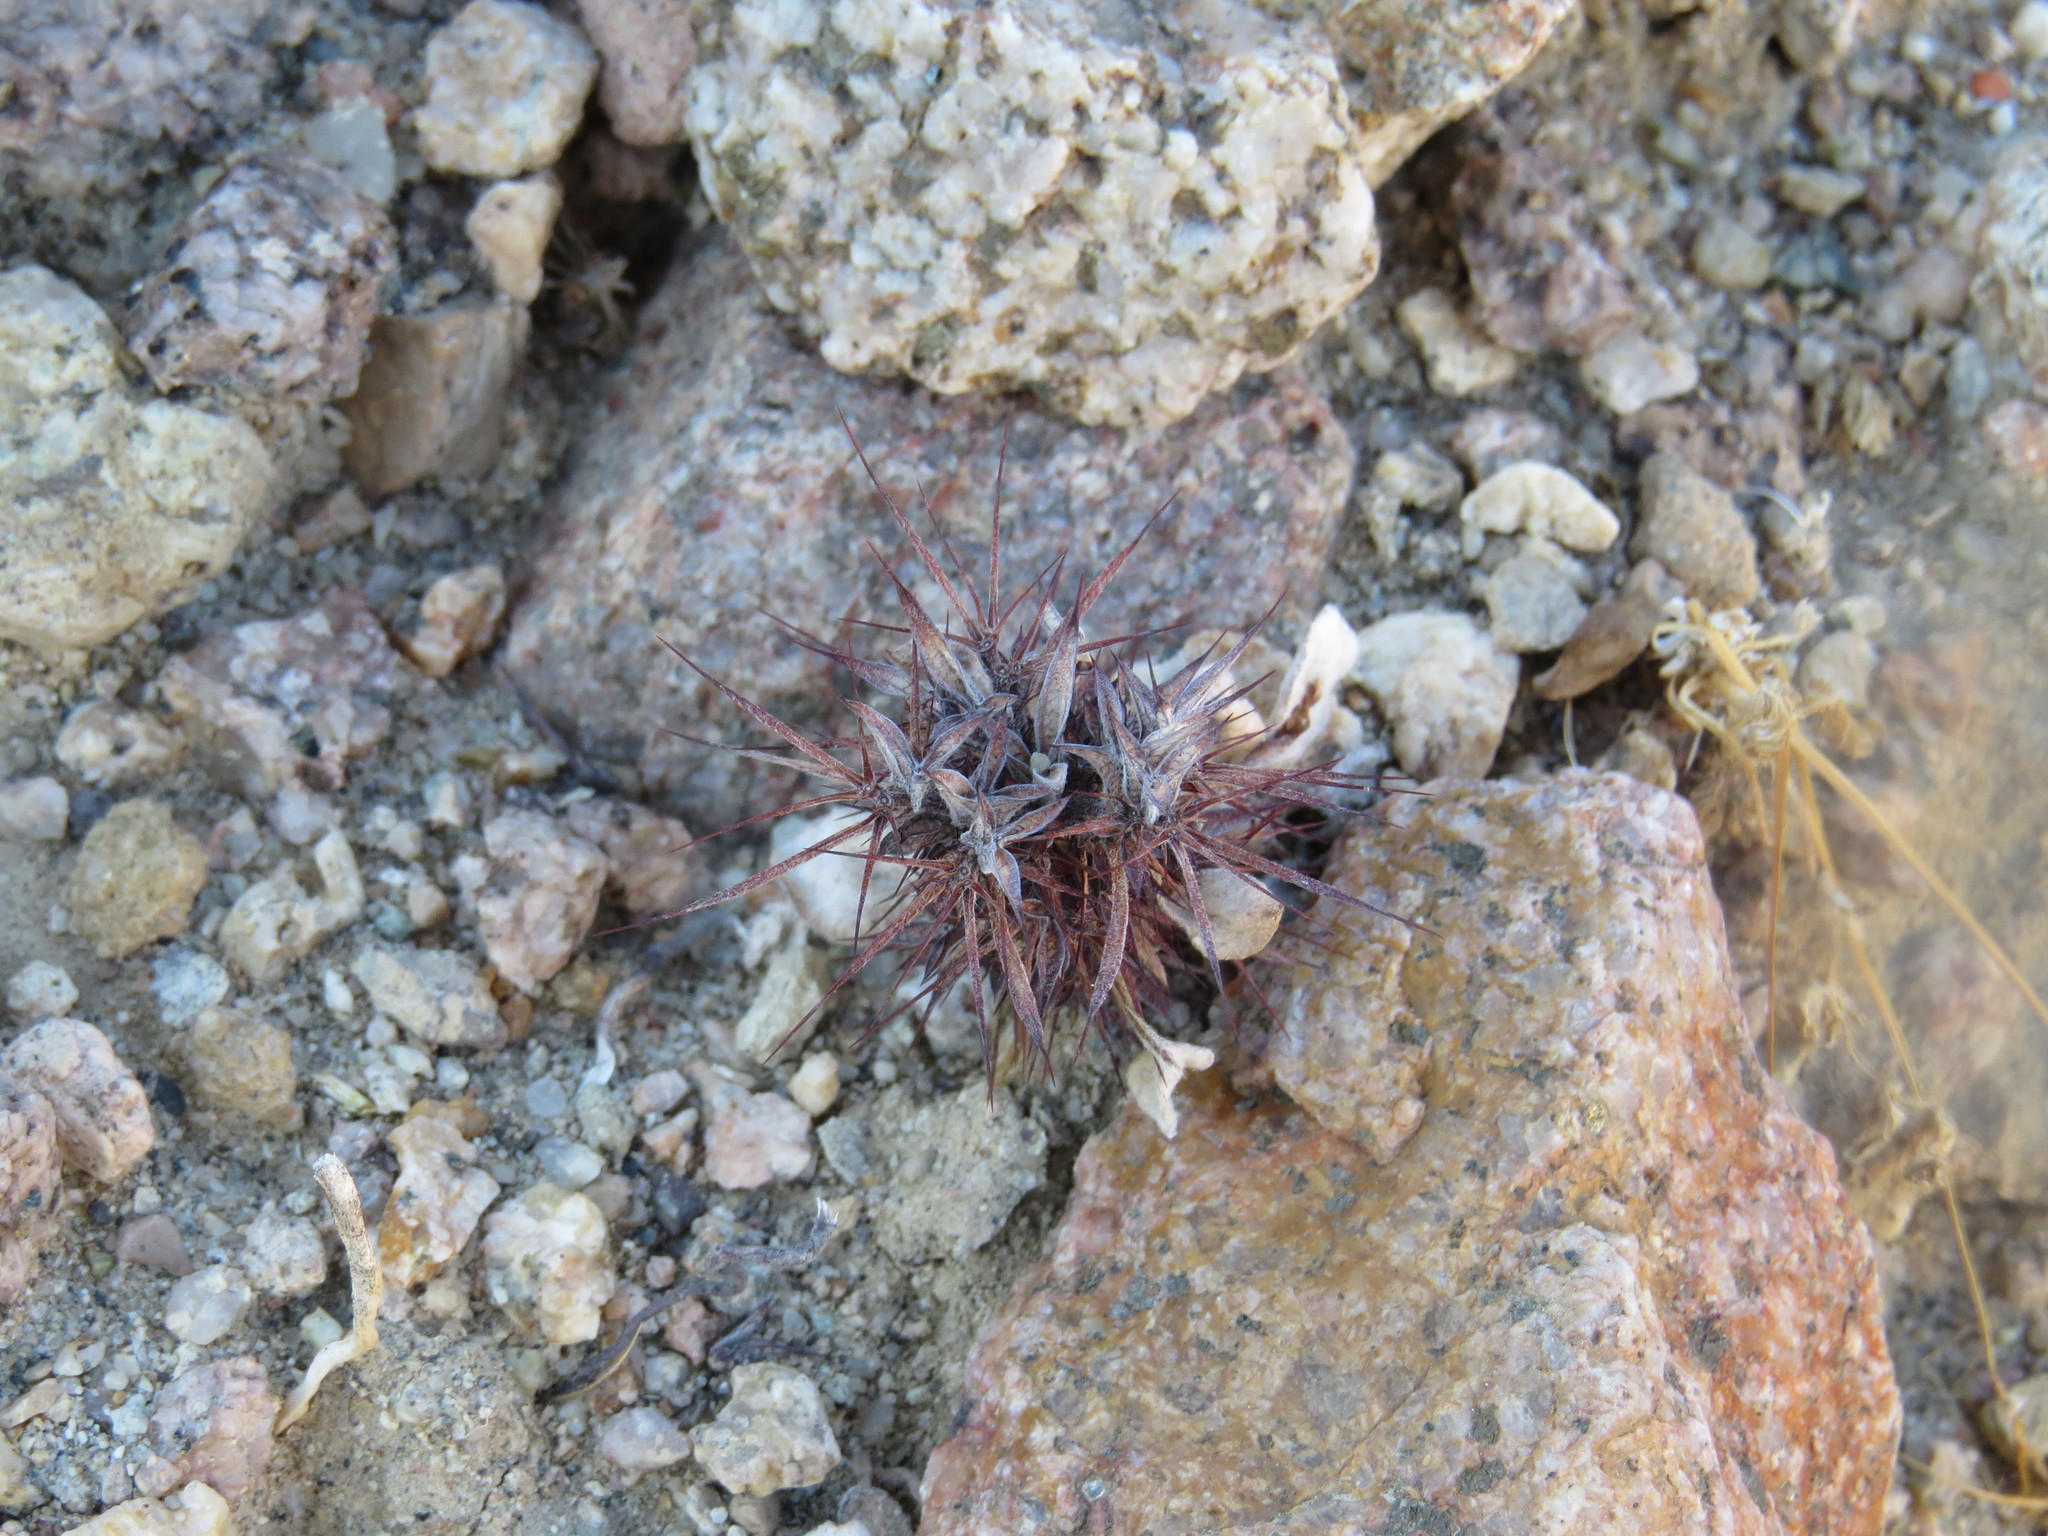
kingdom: Plantae
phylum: Tracheophyta
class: Magnoliopsida
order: Caryophyllales
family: Polygonaceae
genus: Chorizanthe
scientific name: Chorizanthe rigida
